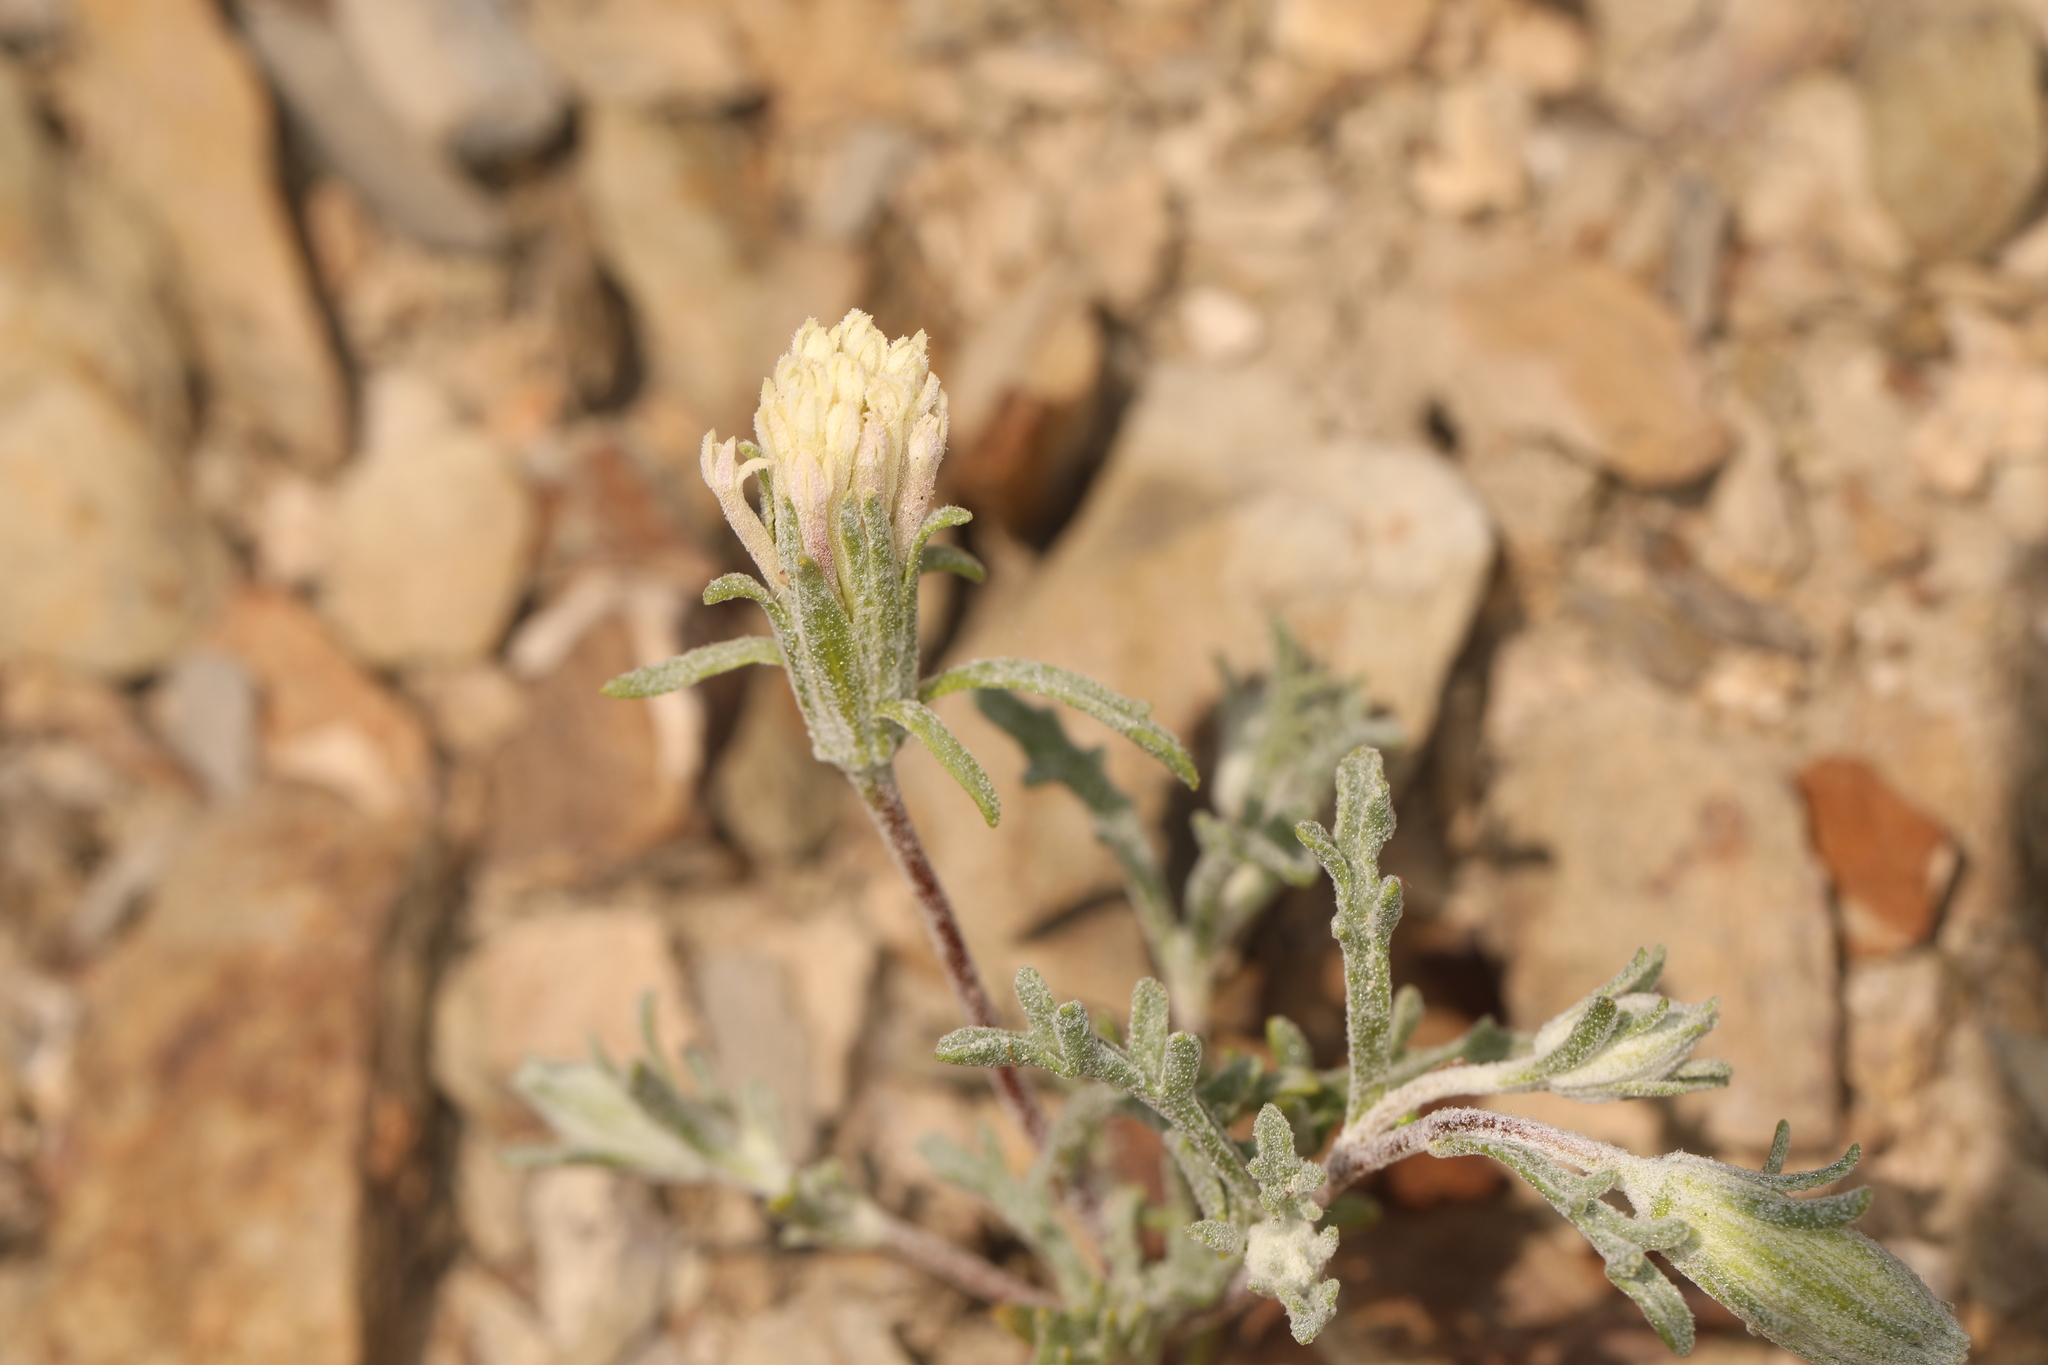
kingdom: Plantae
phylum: Tracheophyta
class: Magnoliopsida
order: Asterales
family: Asteraceae
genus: Chaenactis
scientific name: Chaenactis macrantha
